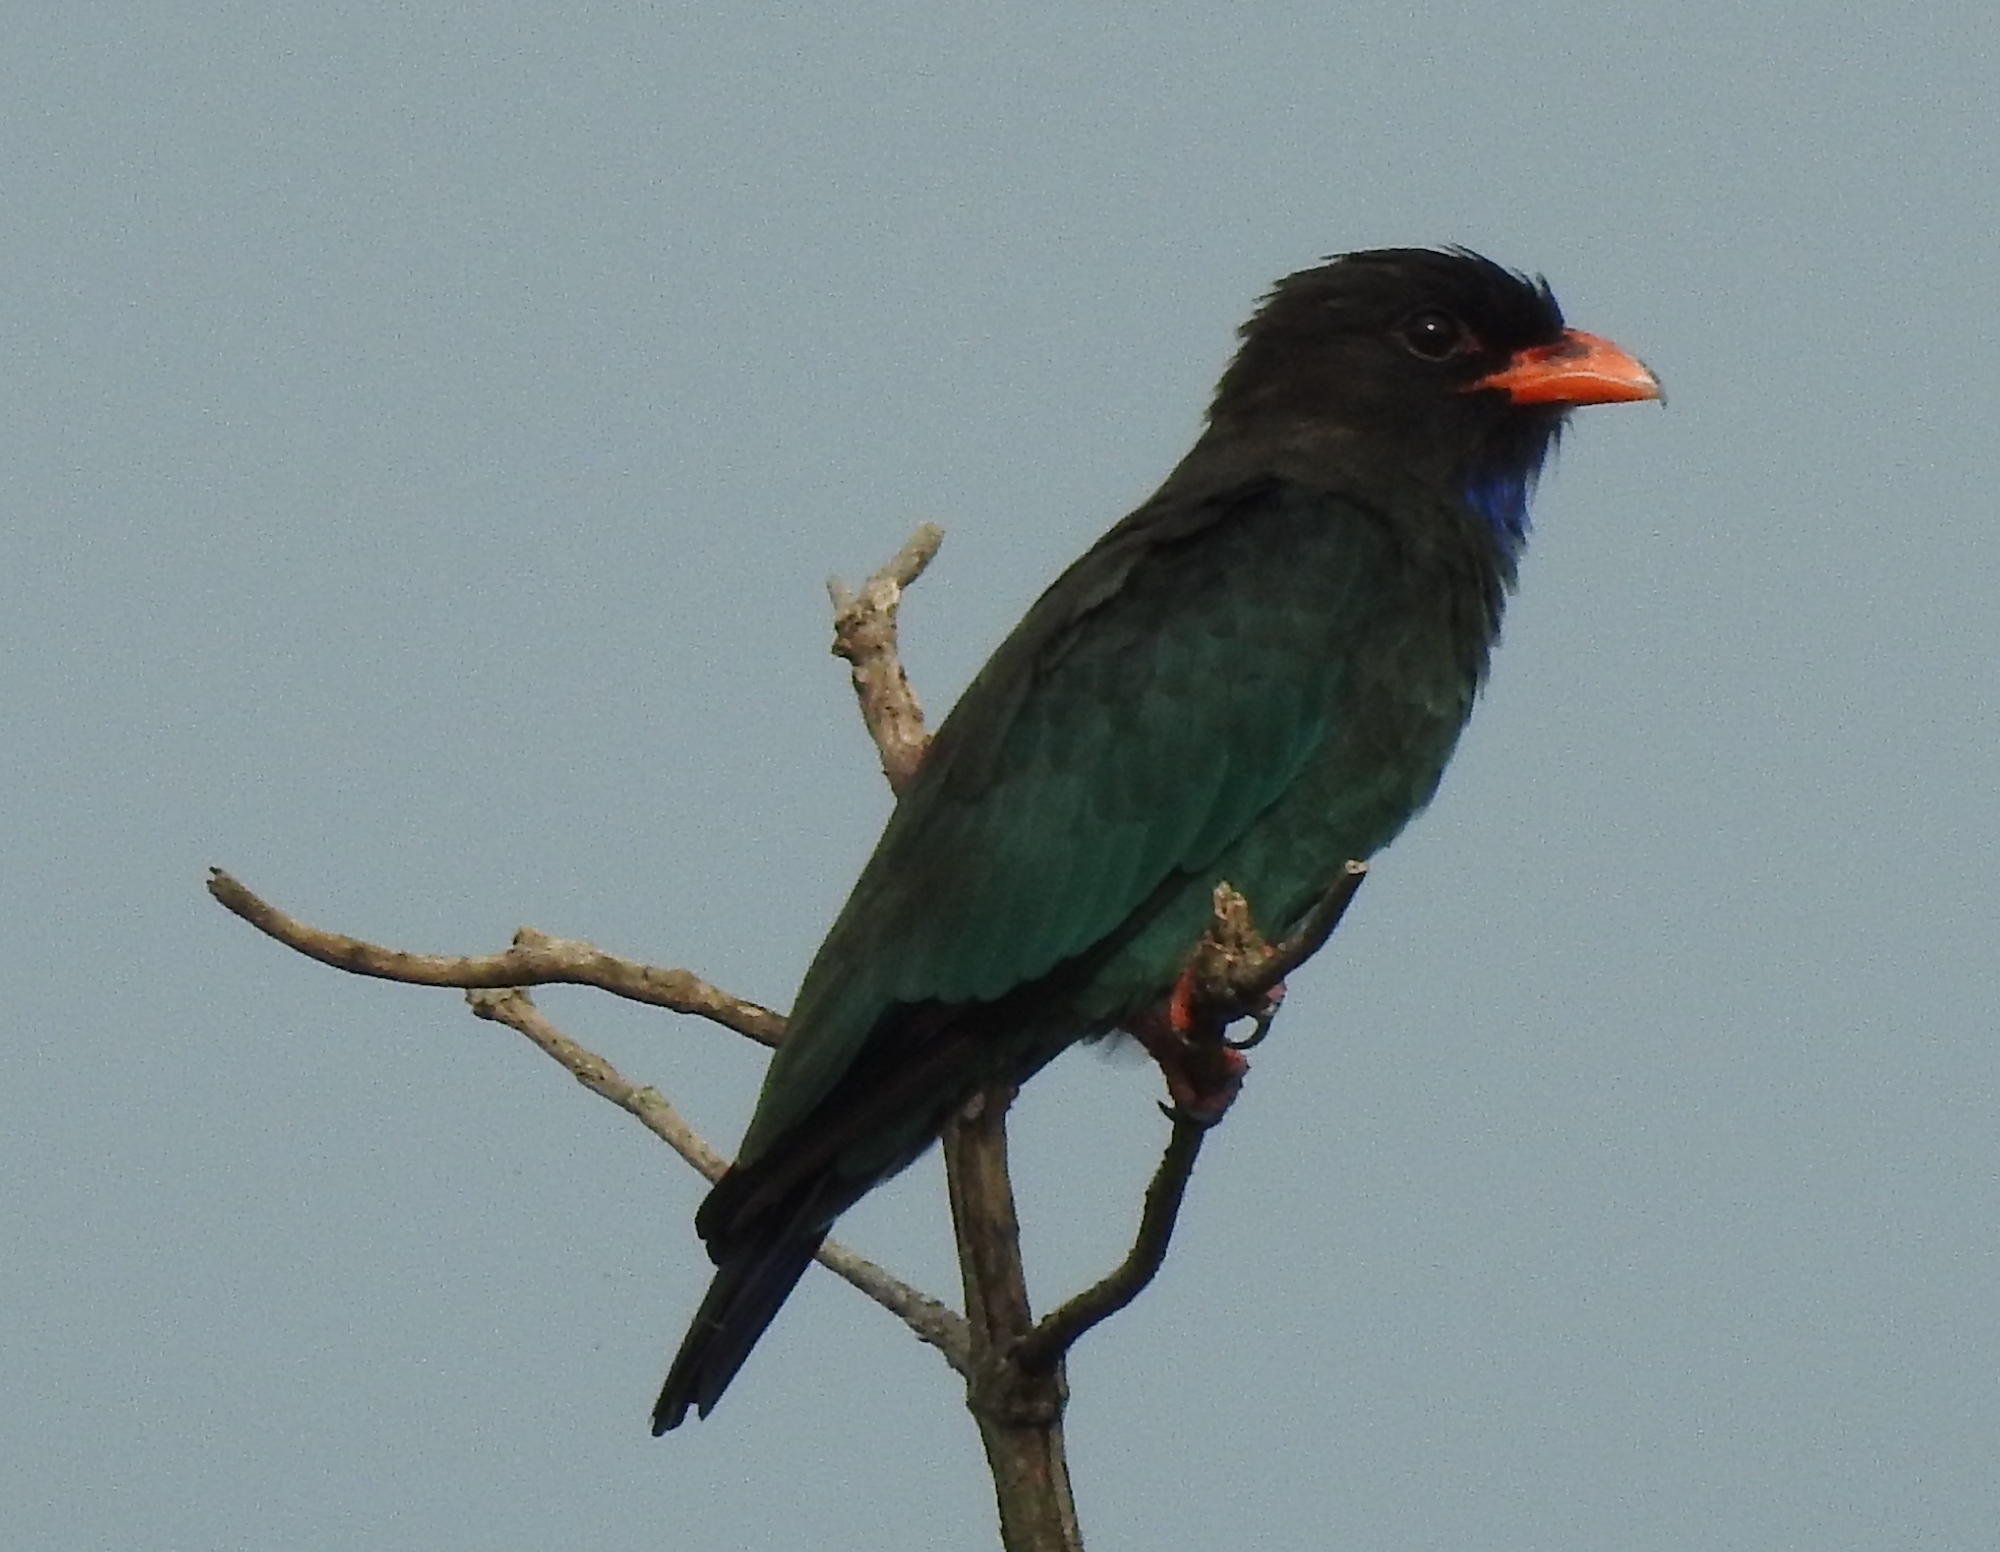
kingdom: Animalia
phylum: Chordata
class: Aves
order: Coraciiformes
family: Coraciidae
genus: Eurystomus
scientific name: Eurystomus orientalis
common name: Oriental dollarbird
